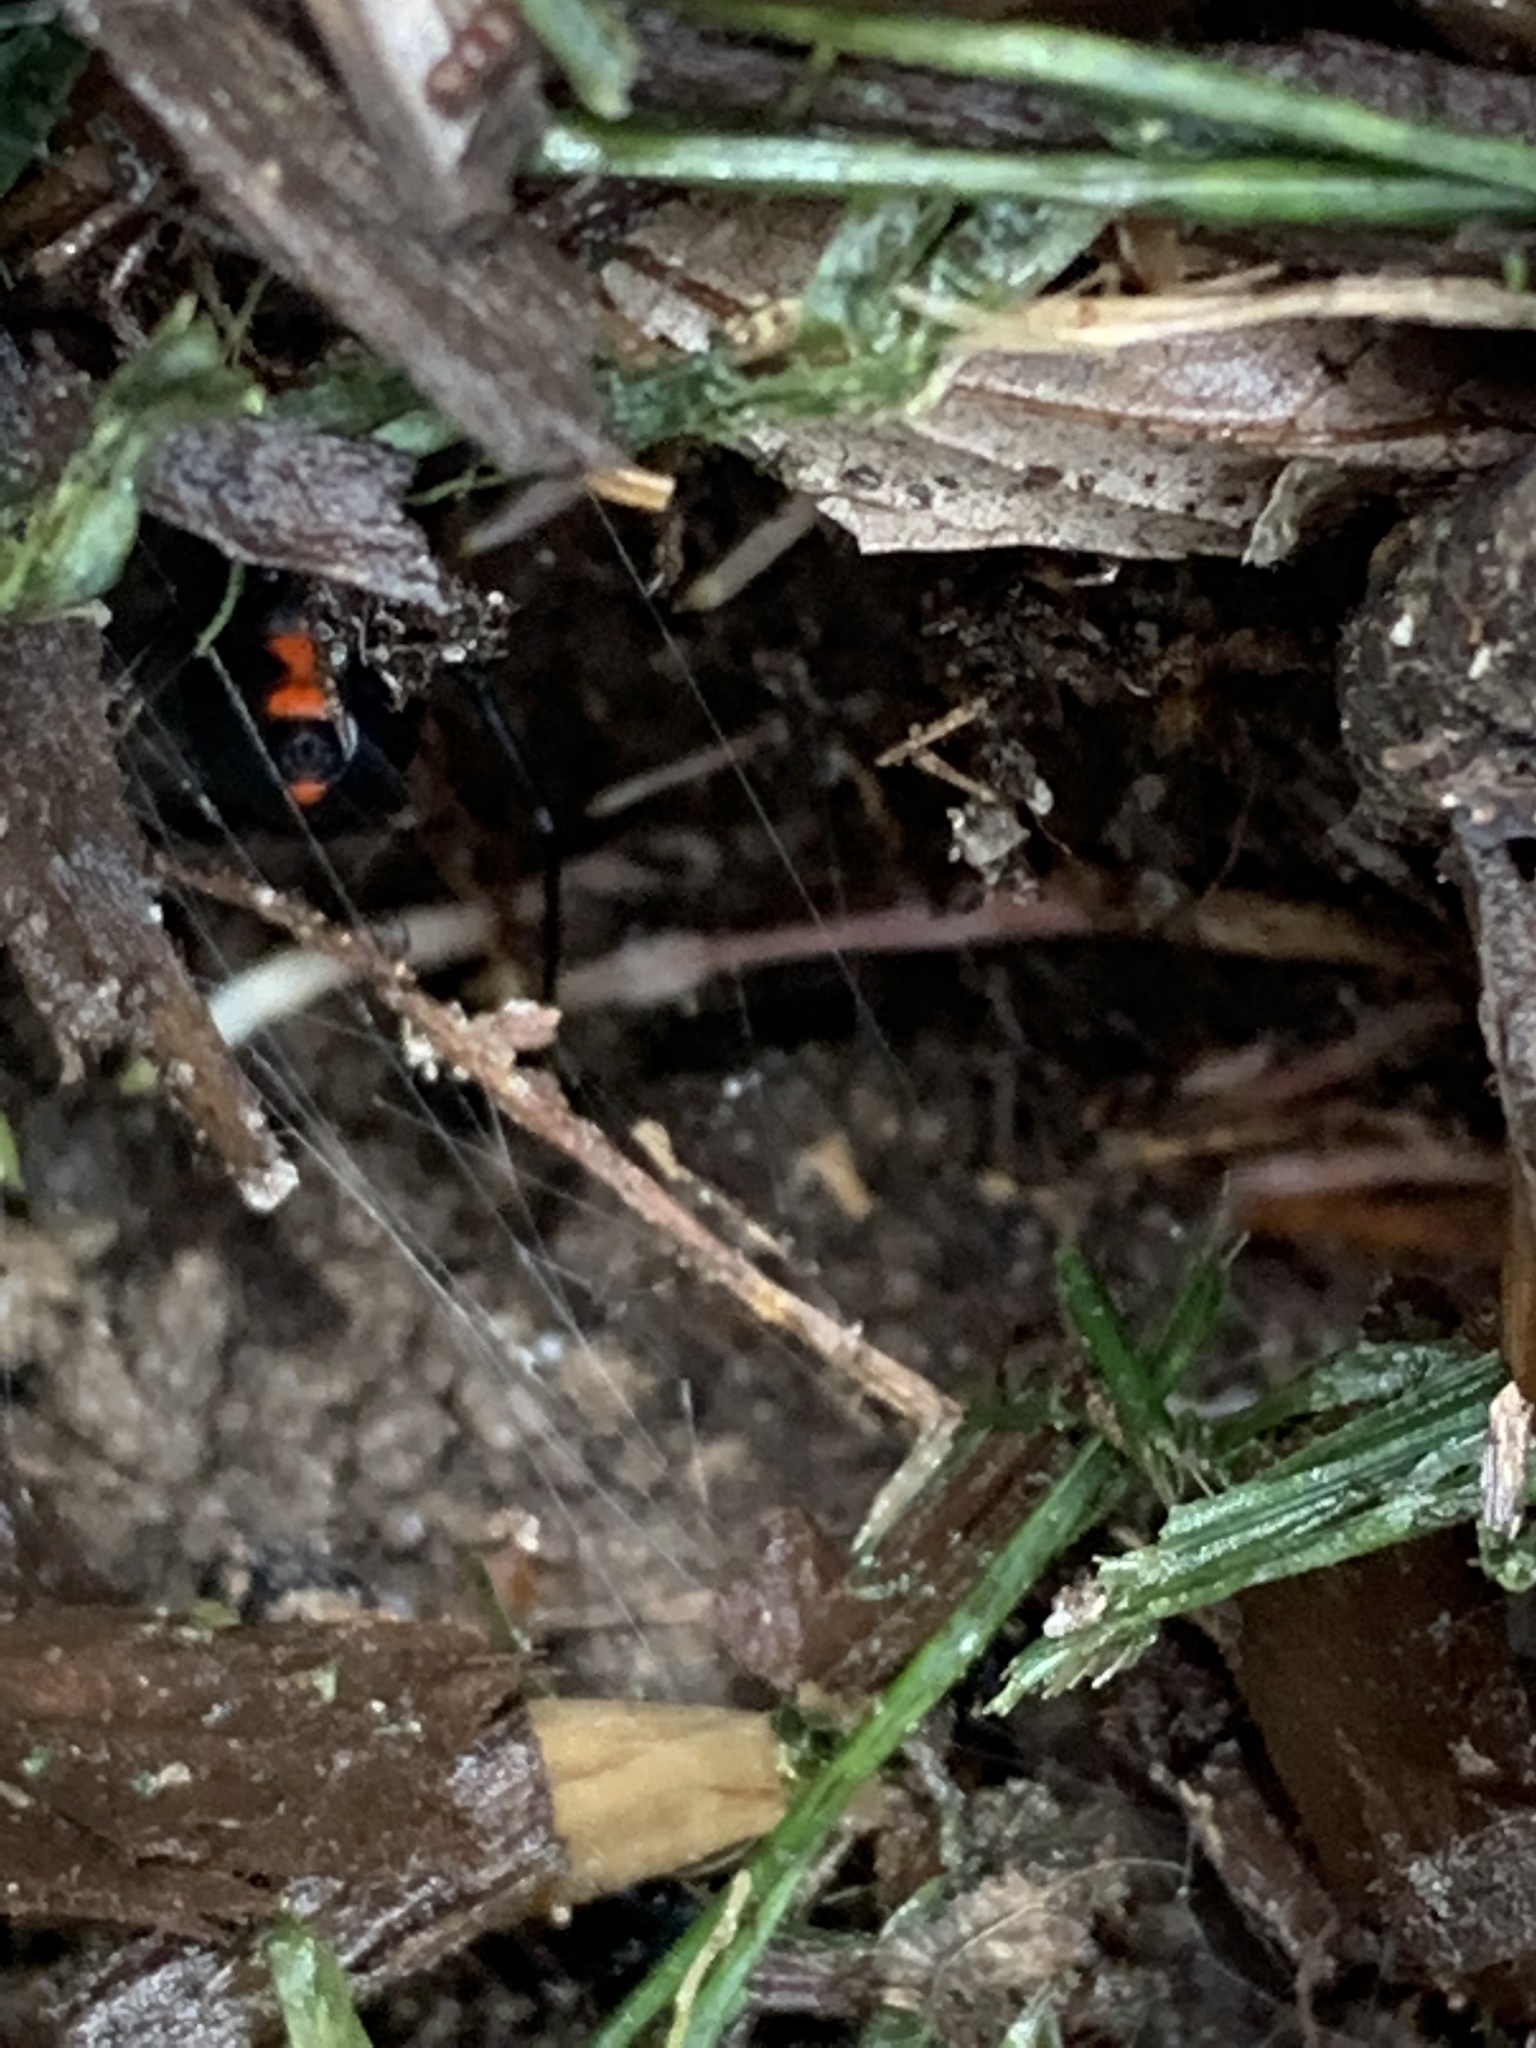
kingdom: Animalia
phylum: Arthropoda
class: Arachnida
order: Araneae
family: Theridiidae
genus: Latrodectus
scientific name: Latrodectus mactans
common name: Cobweb spiders
